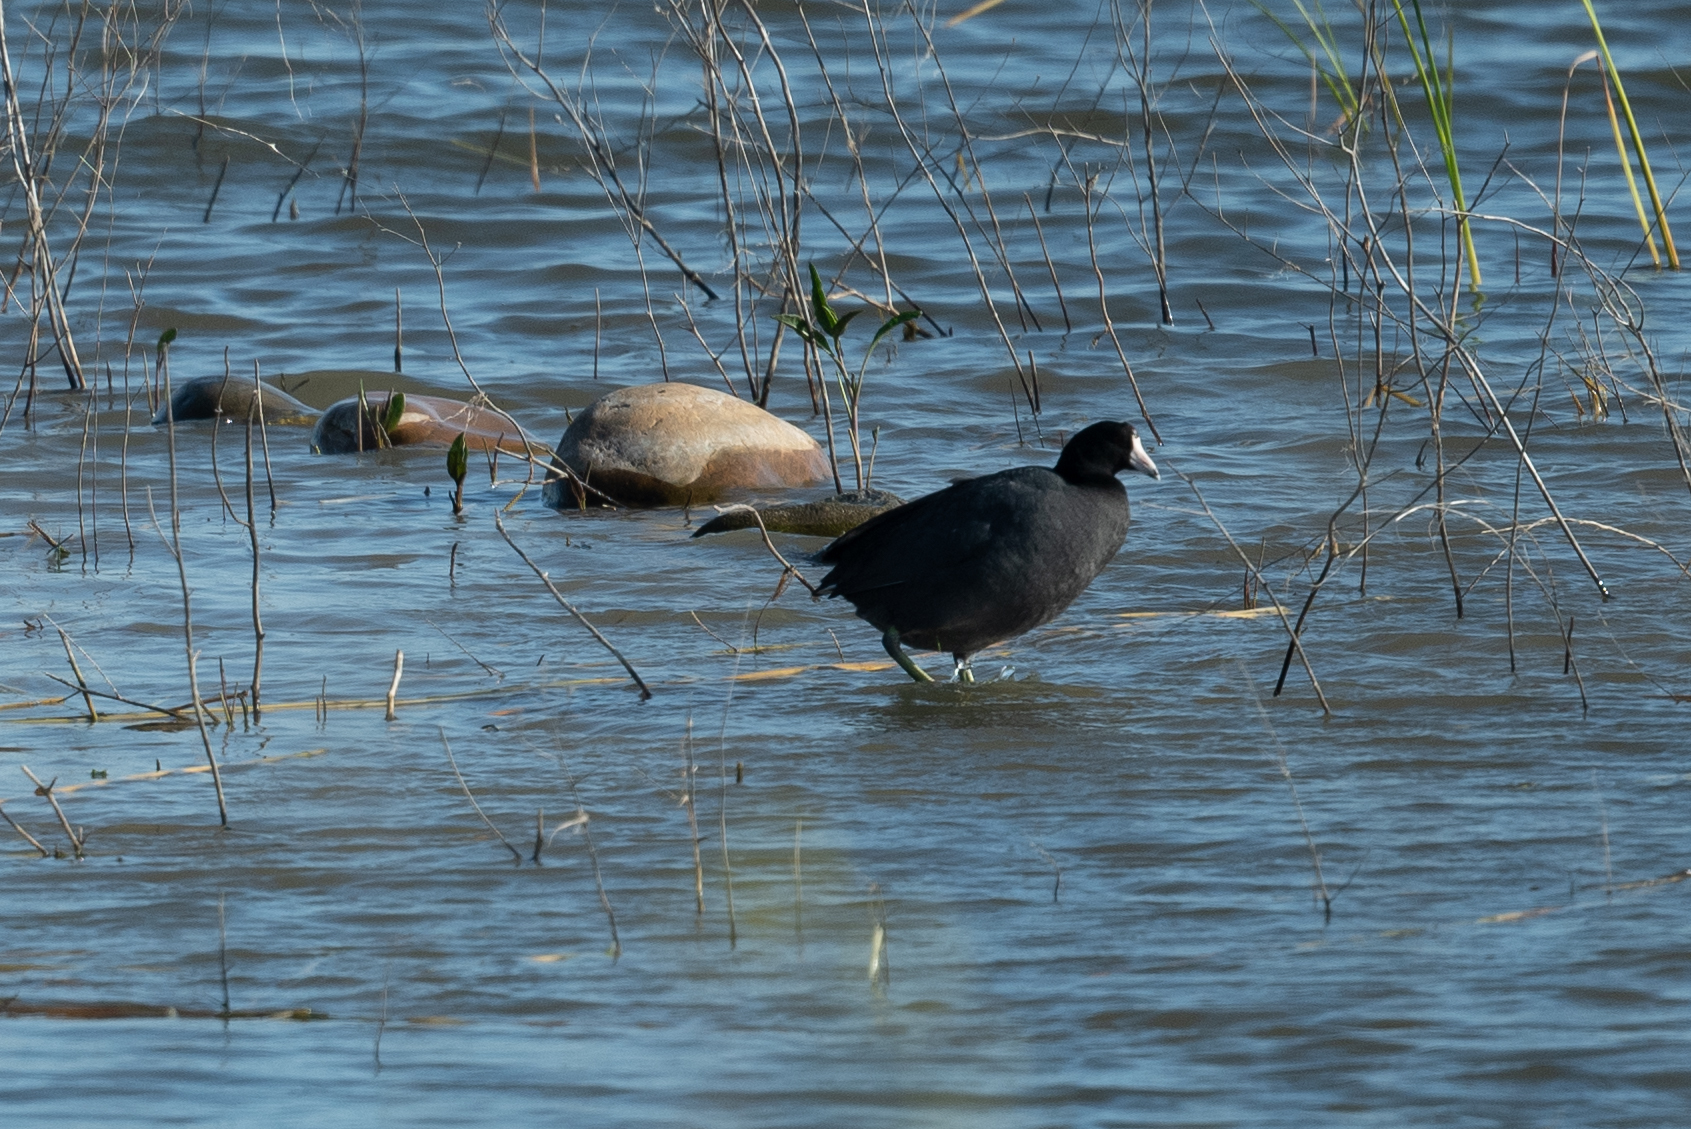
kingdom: Animalia
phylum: Chordata
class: Aves
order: Gruiformes
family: Rallidae
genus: Fulica
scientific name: Fulica americana
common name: American coot
